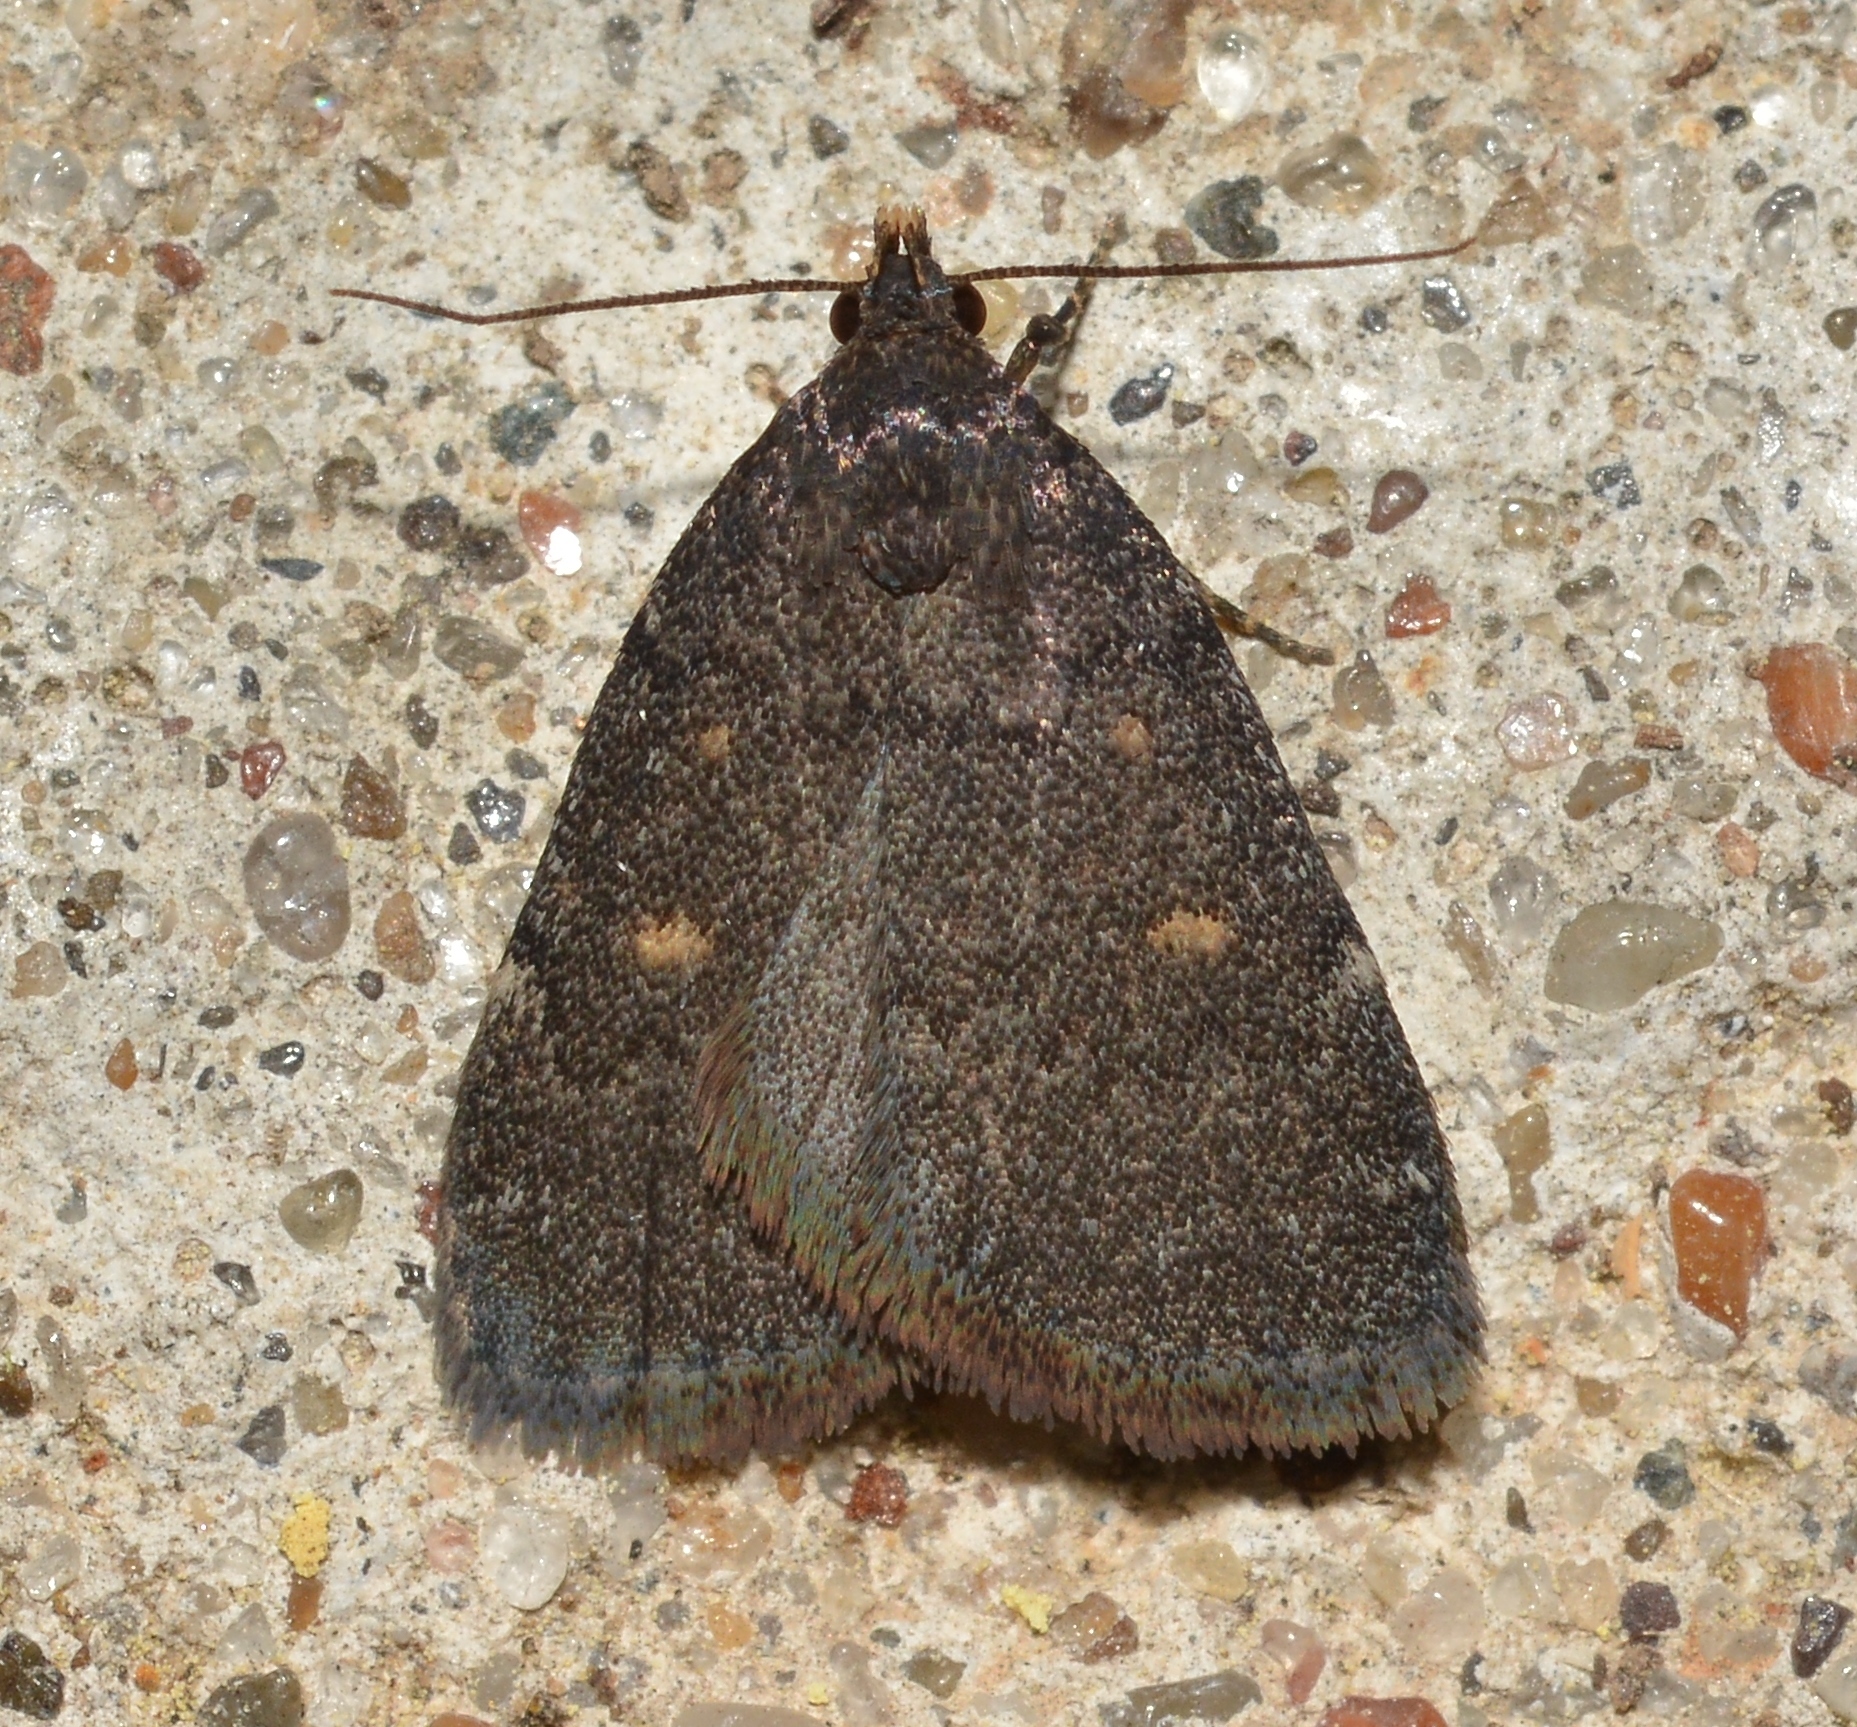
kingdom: Animalia
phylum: Arthropoda
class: Insecta
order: Lepidoptera
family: Erebidae
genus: Idia
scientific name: Idia diminuendis
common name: Orange-spotted idia moth
